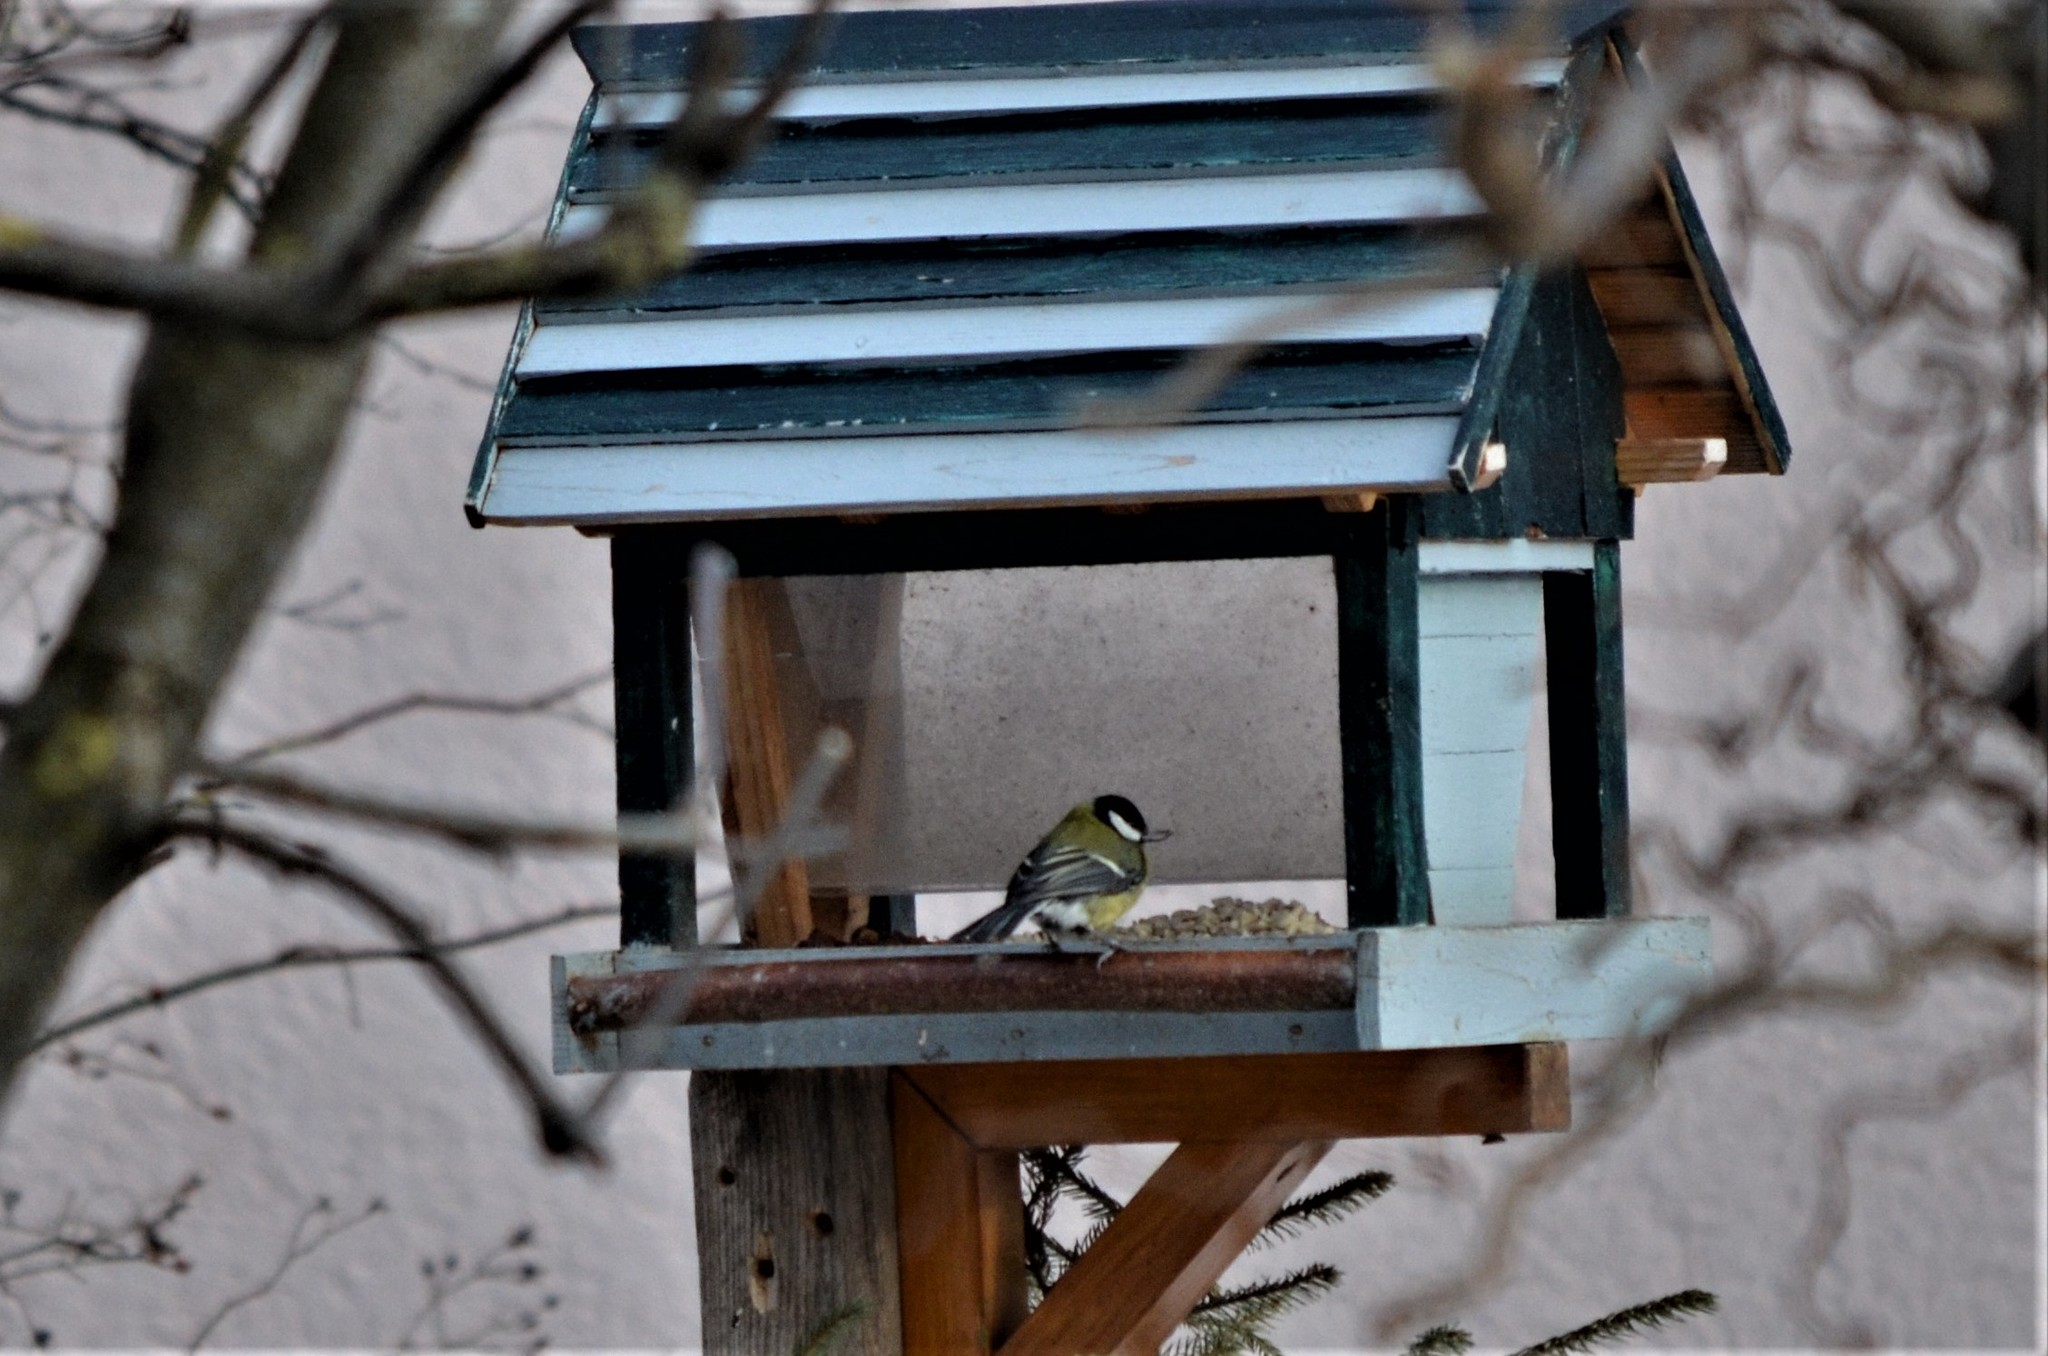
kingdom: Animalia
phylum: Chordata
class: Aves
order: Passeriformes
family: Paridae
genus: Parus
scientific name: Parus major
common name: Great tit
